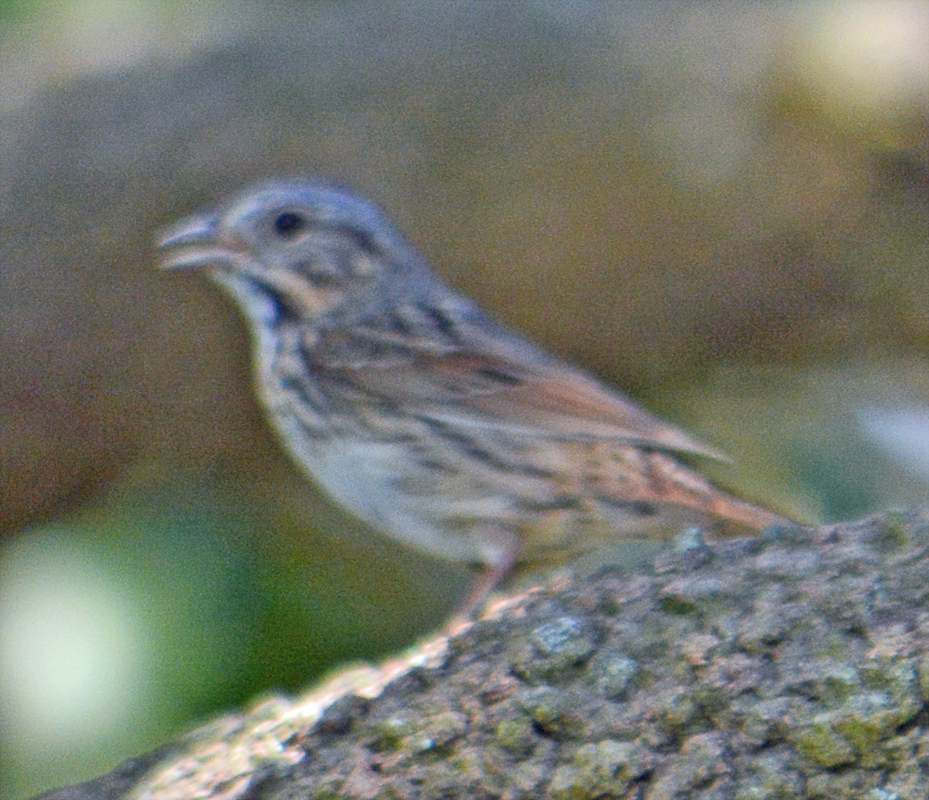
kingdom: Animalia
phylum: Chordata
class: Aves
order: Passeriformes
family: Passerellidae
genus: Melospiza
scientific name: Melospiza lincolnii
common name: Lincoln's sparrow
